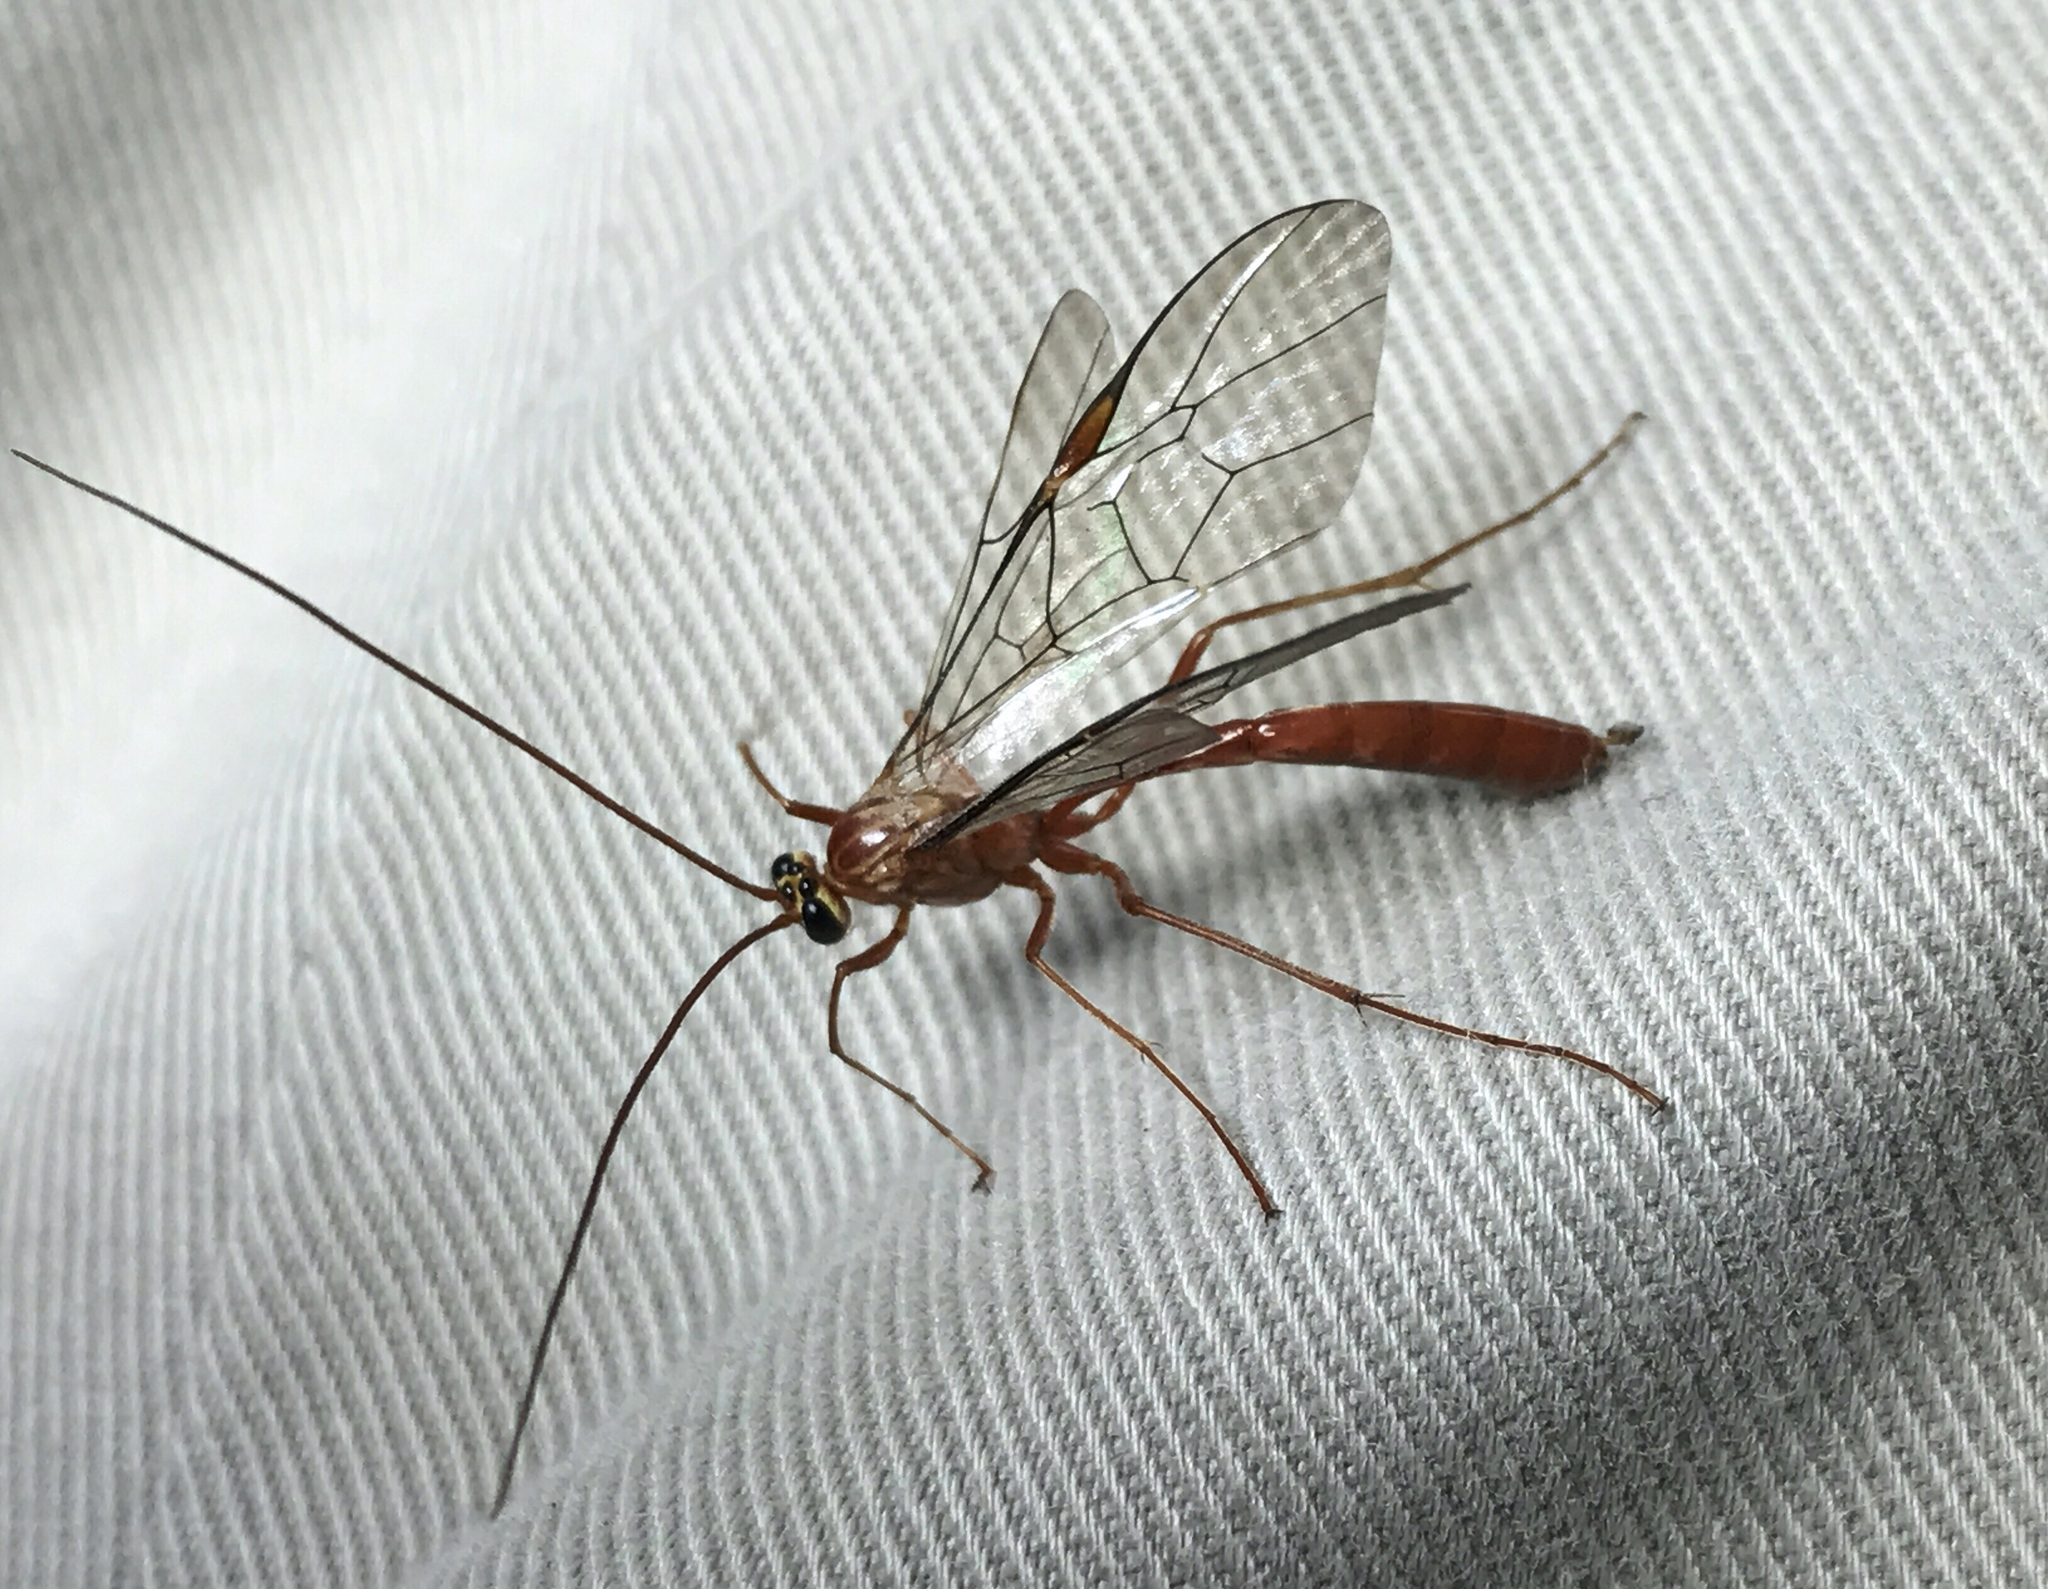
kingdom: Animalia
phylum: Arthropoda
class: Insecta
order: Hymenoptera
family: Ichneumonidae
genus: Ophion
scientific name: Ophion
